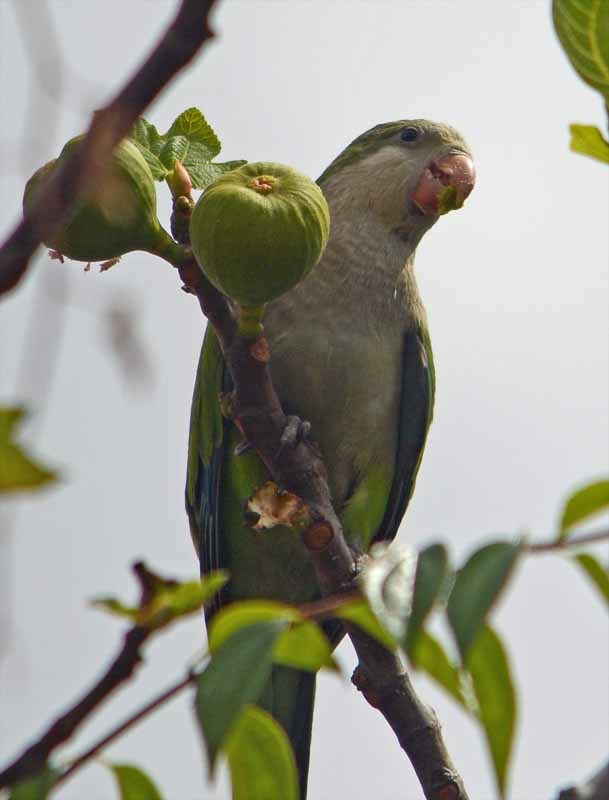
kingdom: Animalia
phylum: Chordata
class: Aves
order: Psittaciformes
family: Psittacidae
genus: Myiopsitta
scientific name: Myiopsitta monachus
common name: Monk parakeet
